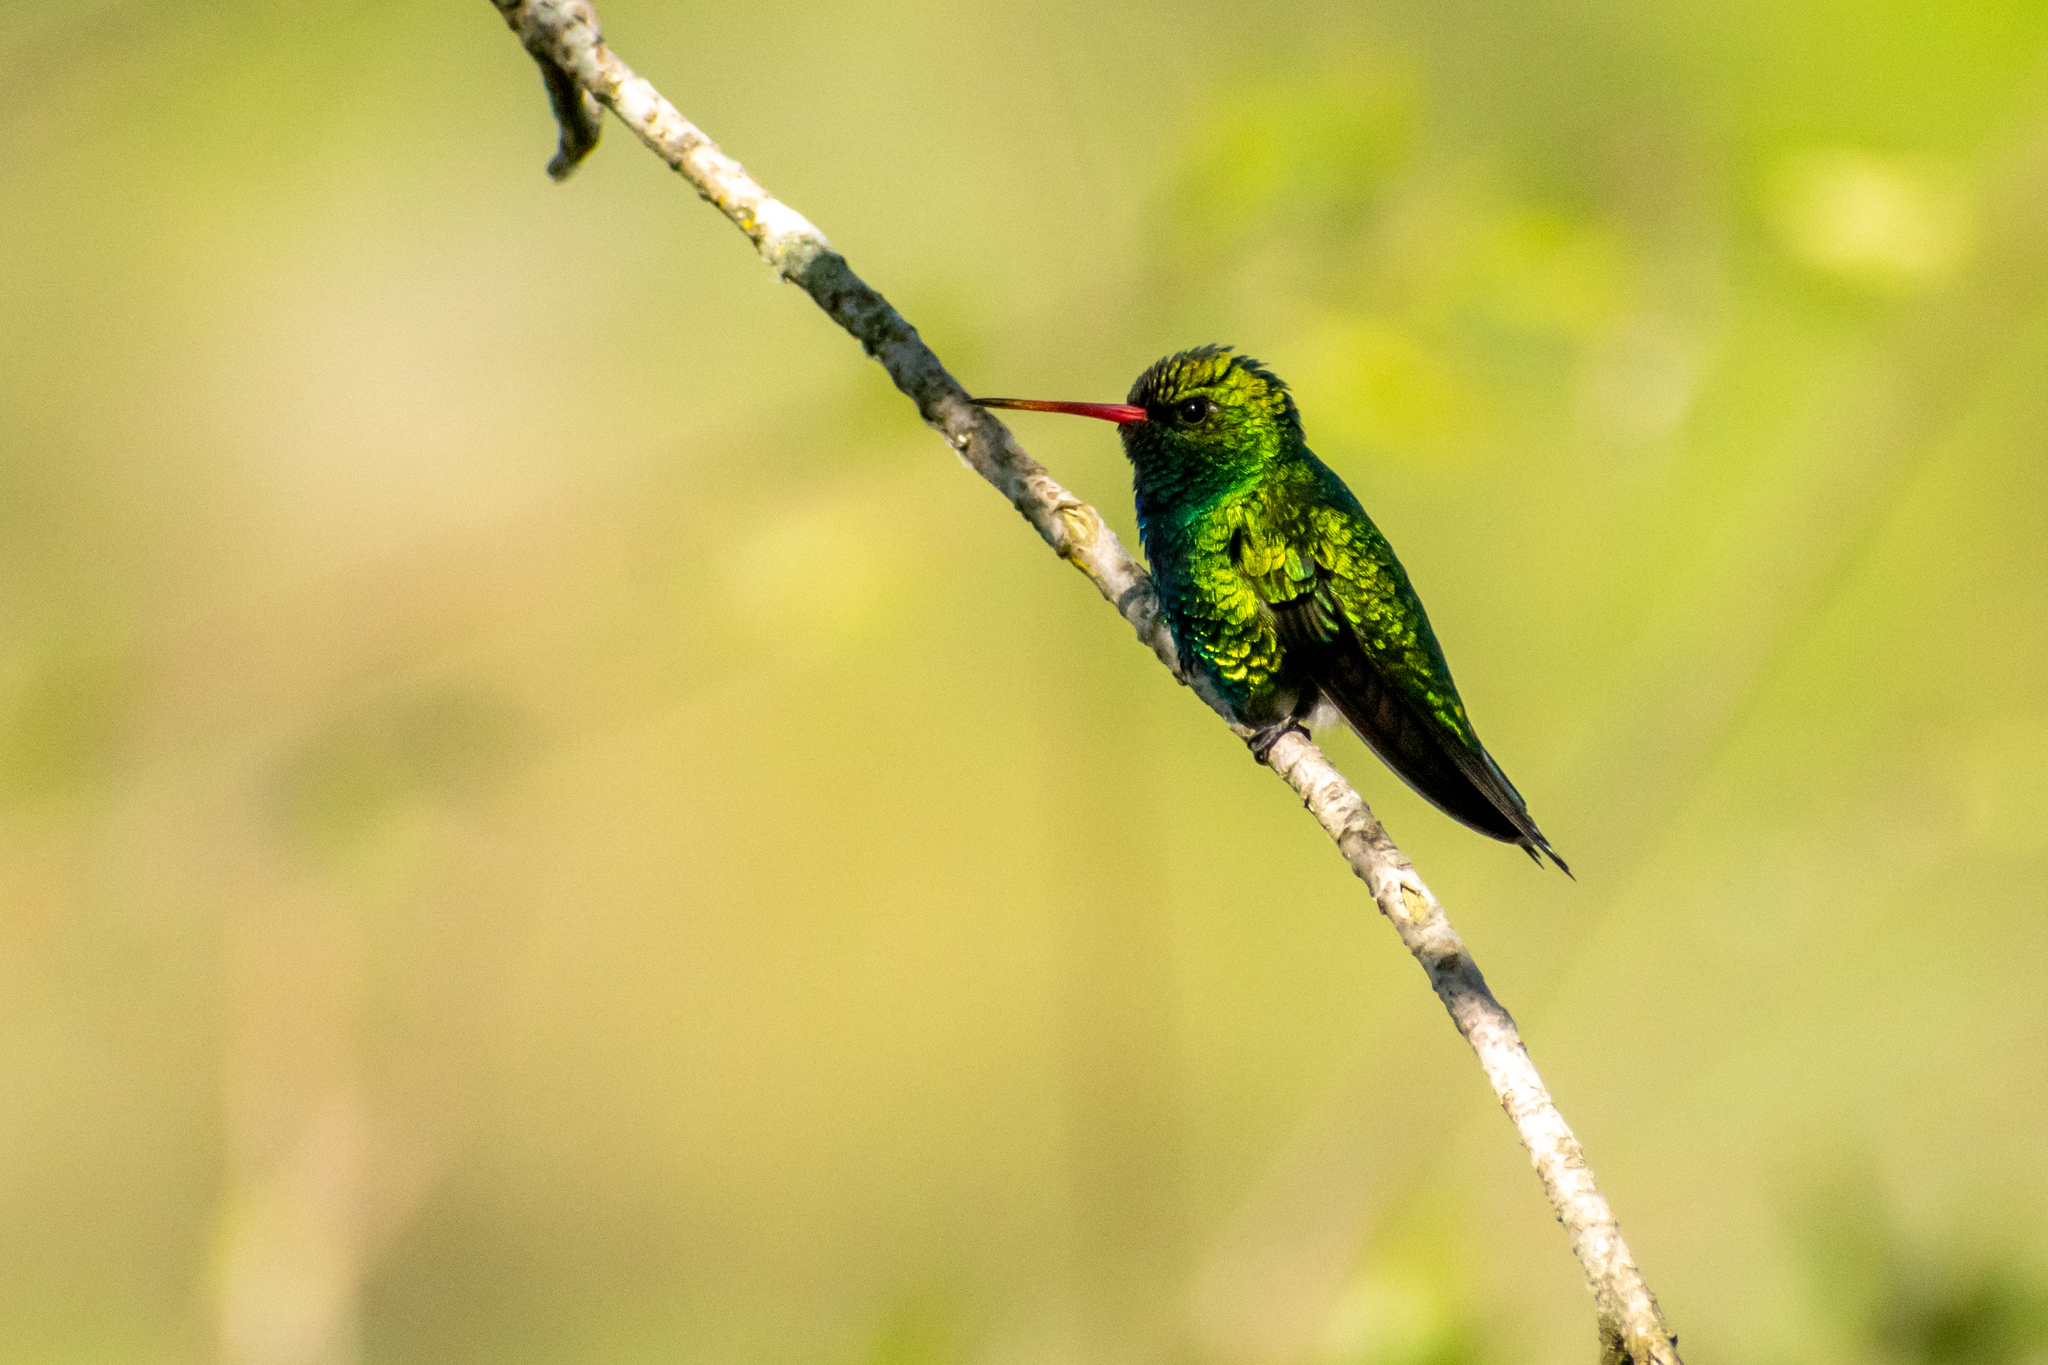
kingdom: Animalia
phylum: Chordata
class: Aves
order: Apodiformes
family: Trochilidae
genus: Chlorostilbon
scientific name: Chlorostilbon lucidus
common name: Glittering-bellied emerald
